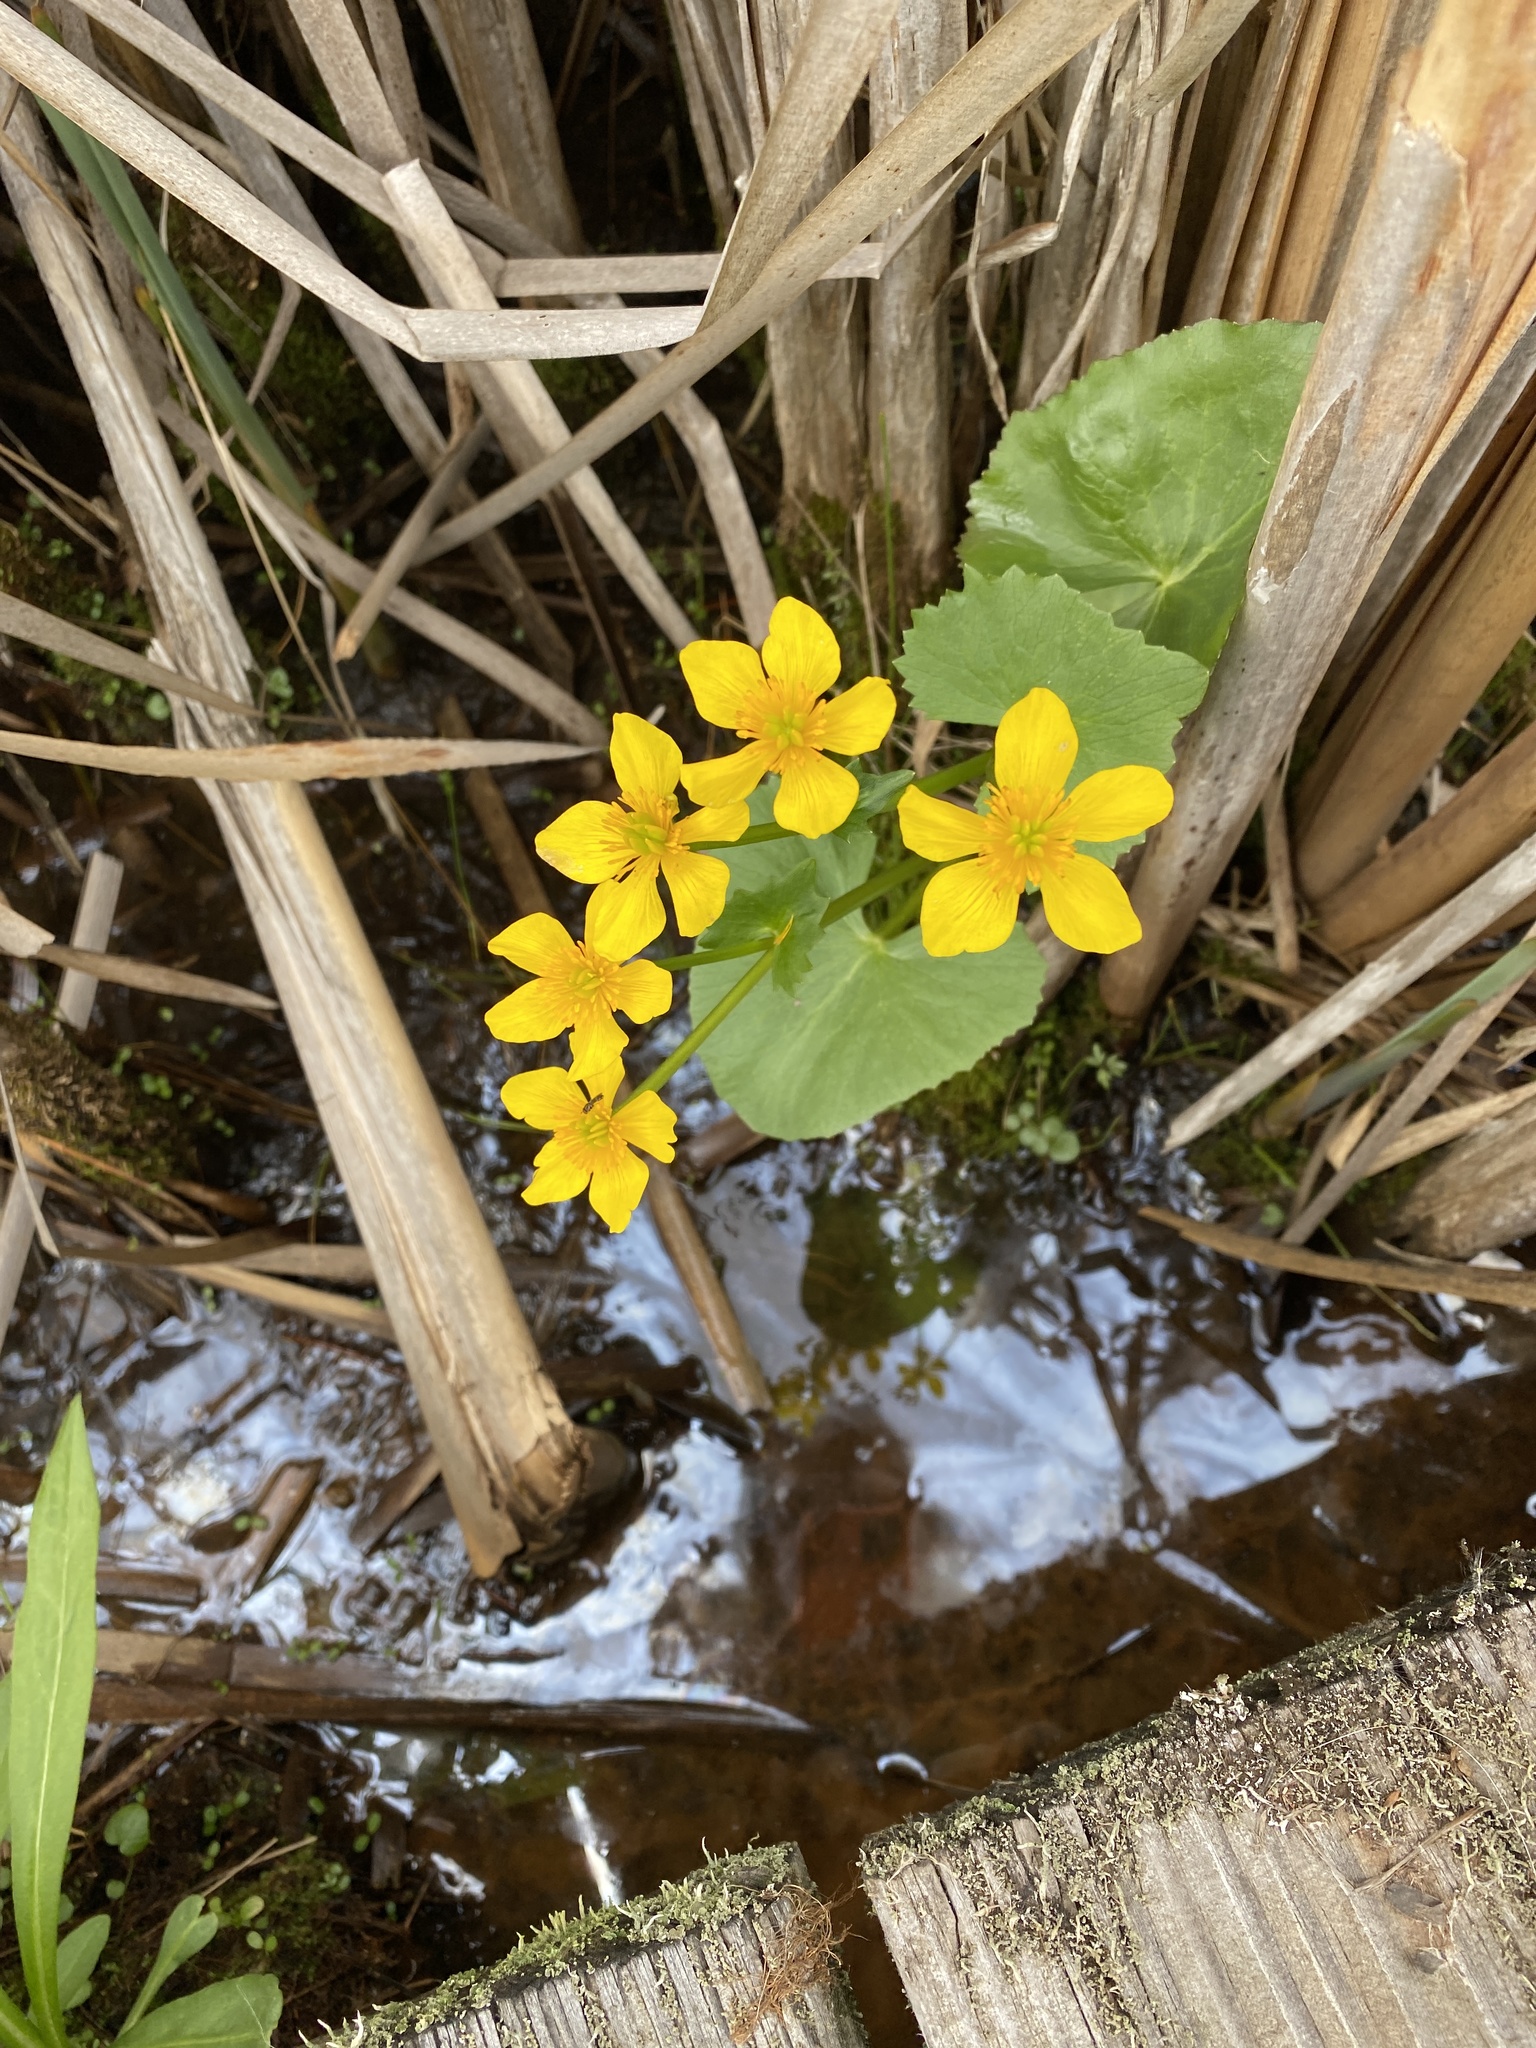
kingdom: Plantae
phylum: Tracheophyta
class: Magnoliopsida
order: Ranunculales
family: Ranunculaceae
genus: Caltha
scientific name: Caltha palustris
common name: Marsh marigold
